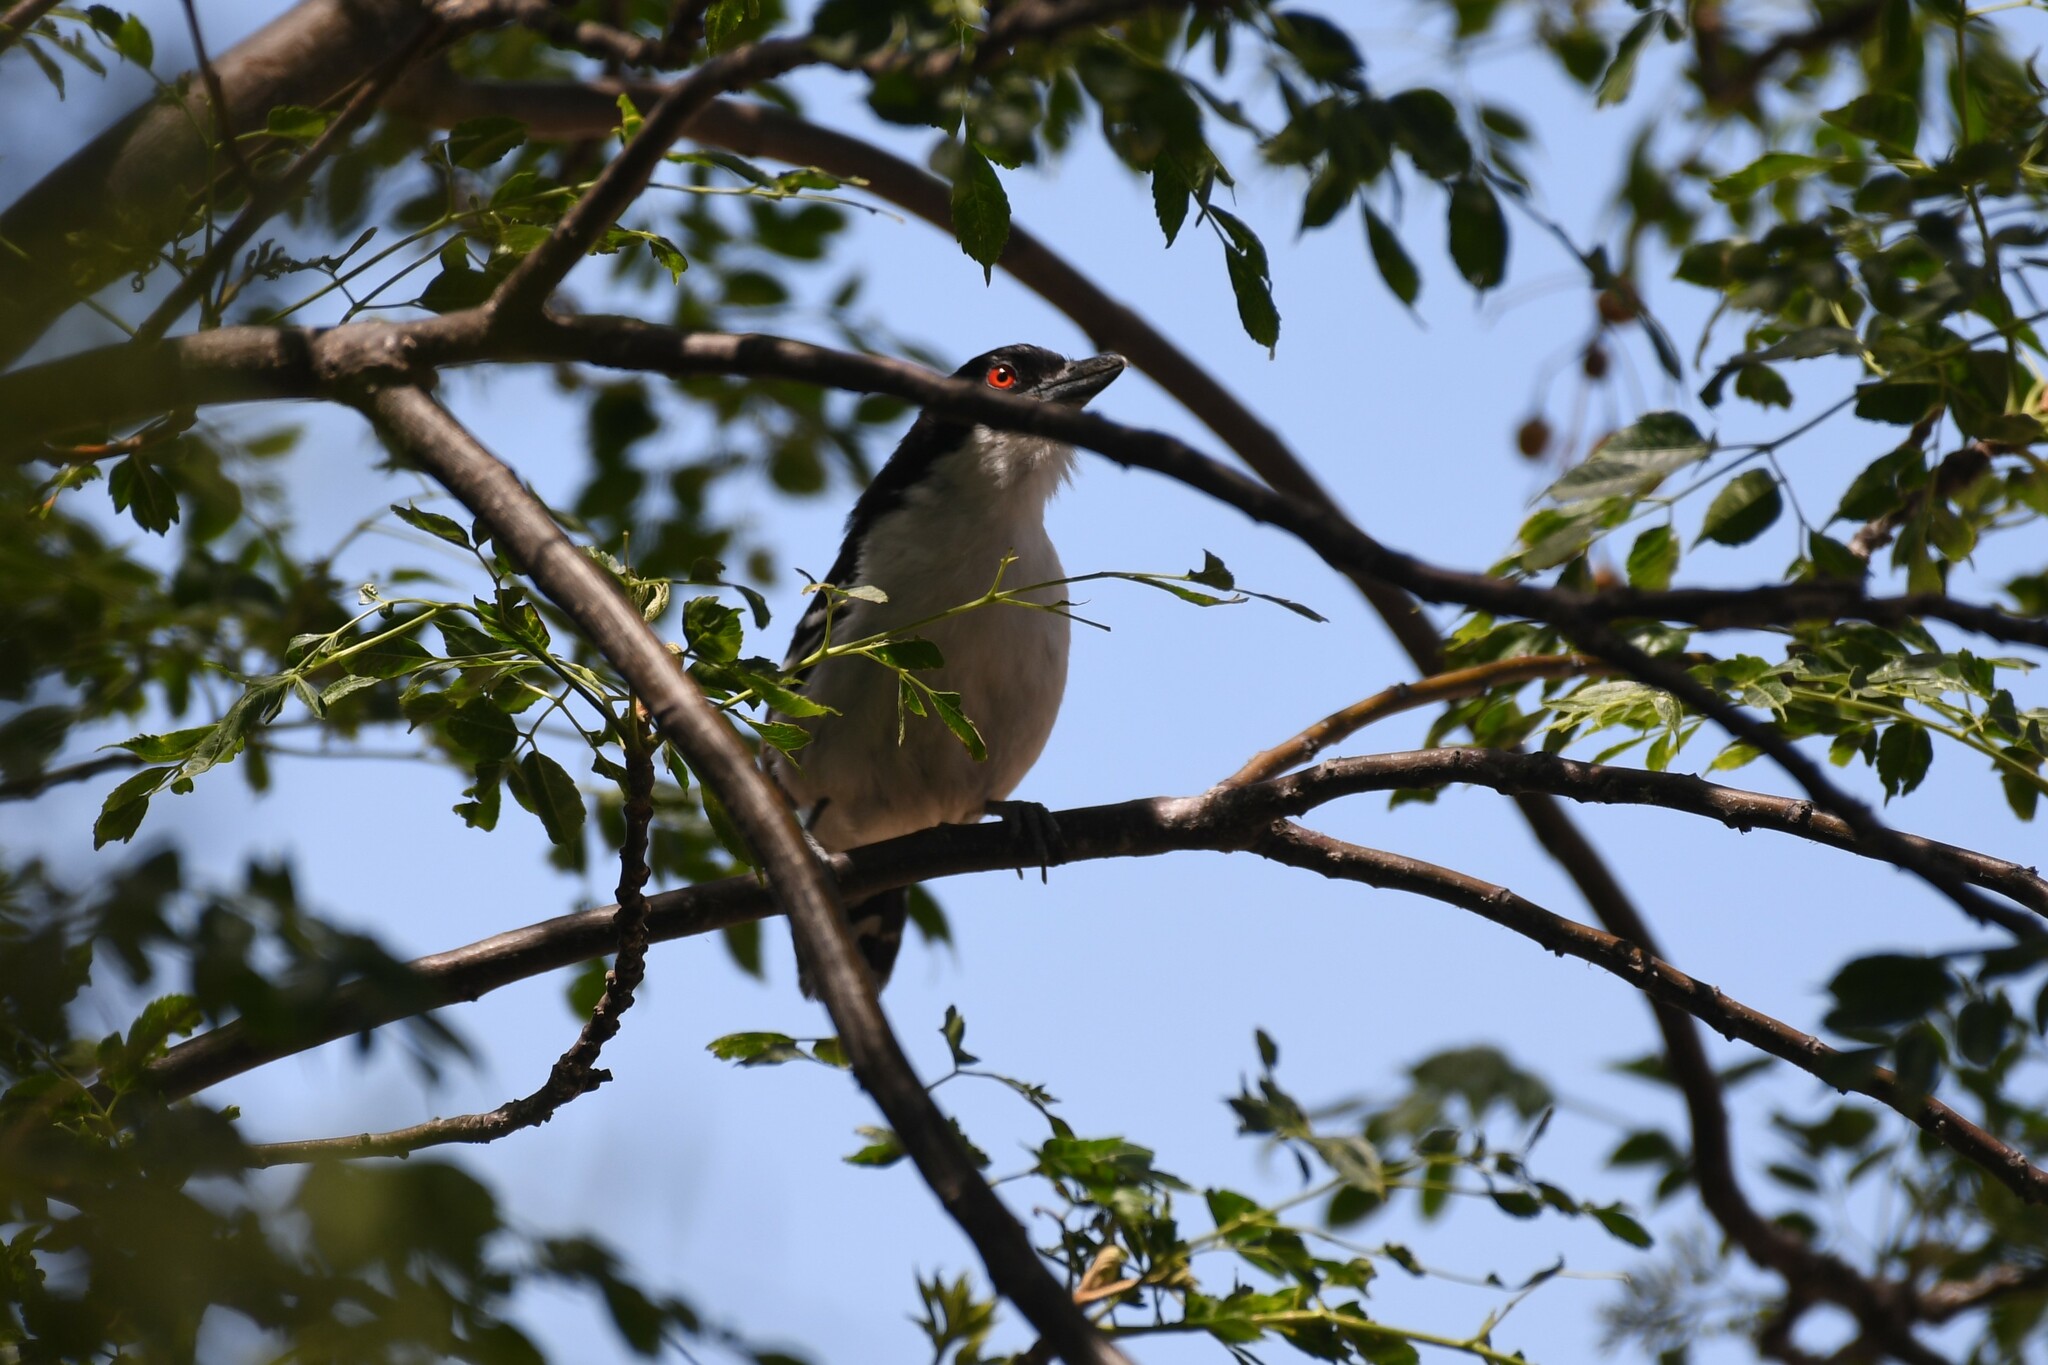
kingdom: Animalia
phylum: Chordata
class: Aves
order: Passeriformes
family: Thamnophilidae
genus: Taraba
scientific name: Taraba major
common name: Great antshrike
